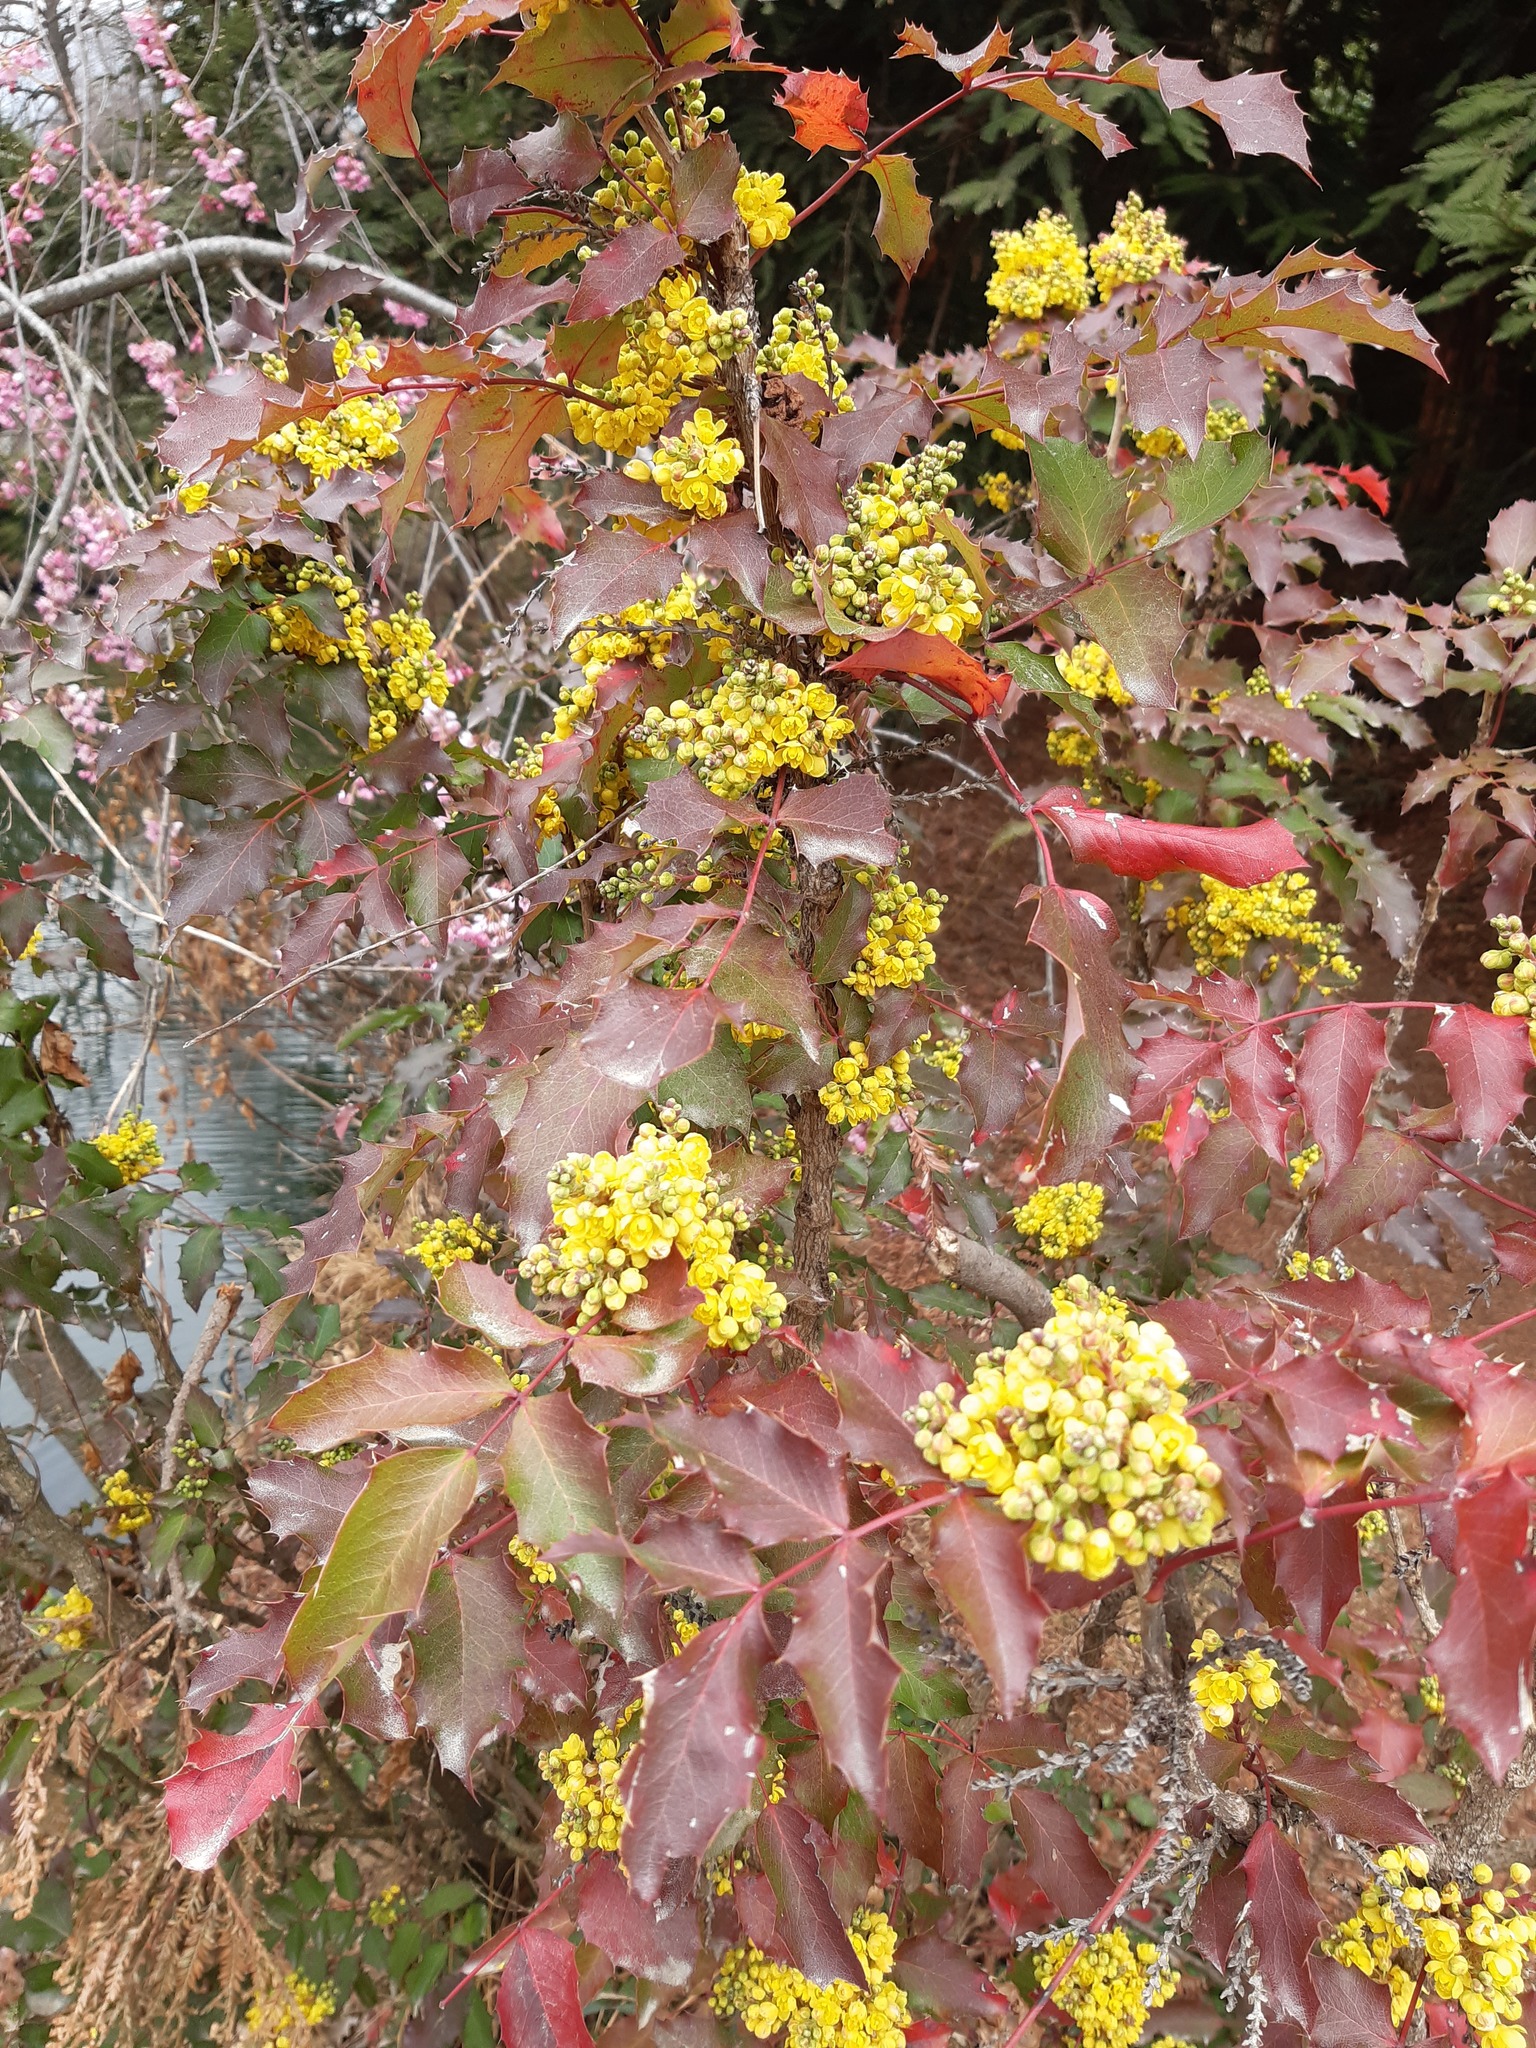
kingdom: Plantae
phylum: Tracheophyta
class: Magnoliopsida
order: Ranunculales
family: Berberidaceae
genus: Mahonia
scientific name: Mahonia aquifolium
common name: Oregon-grape
